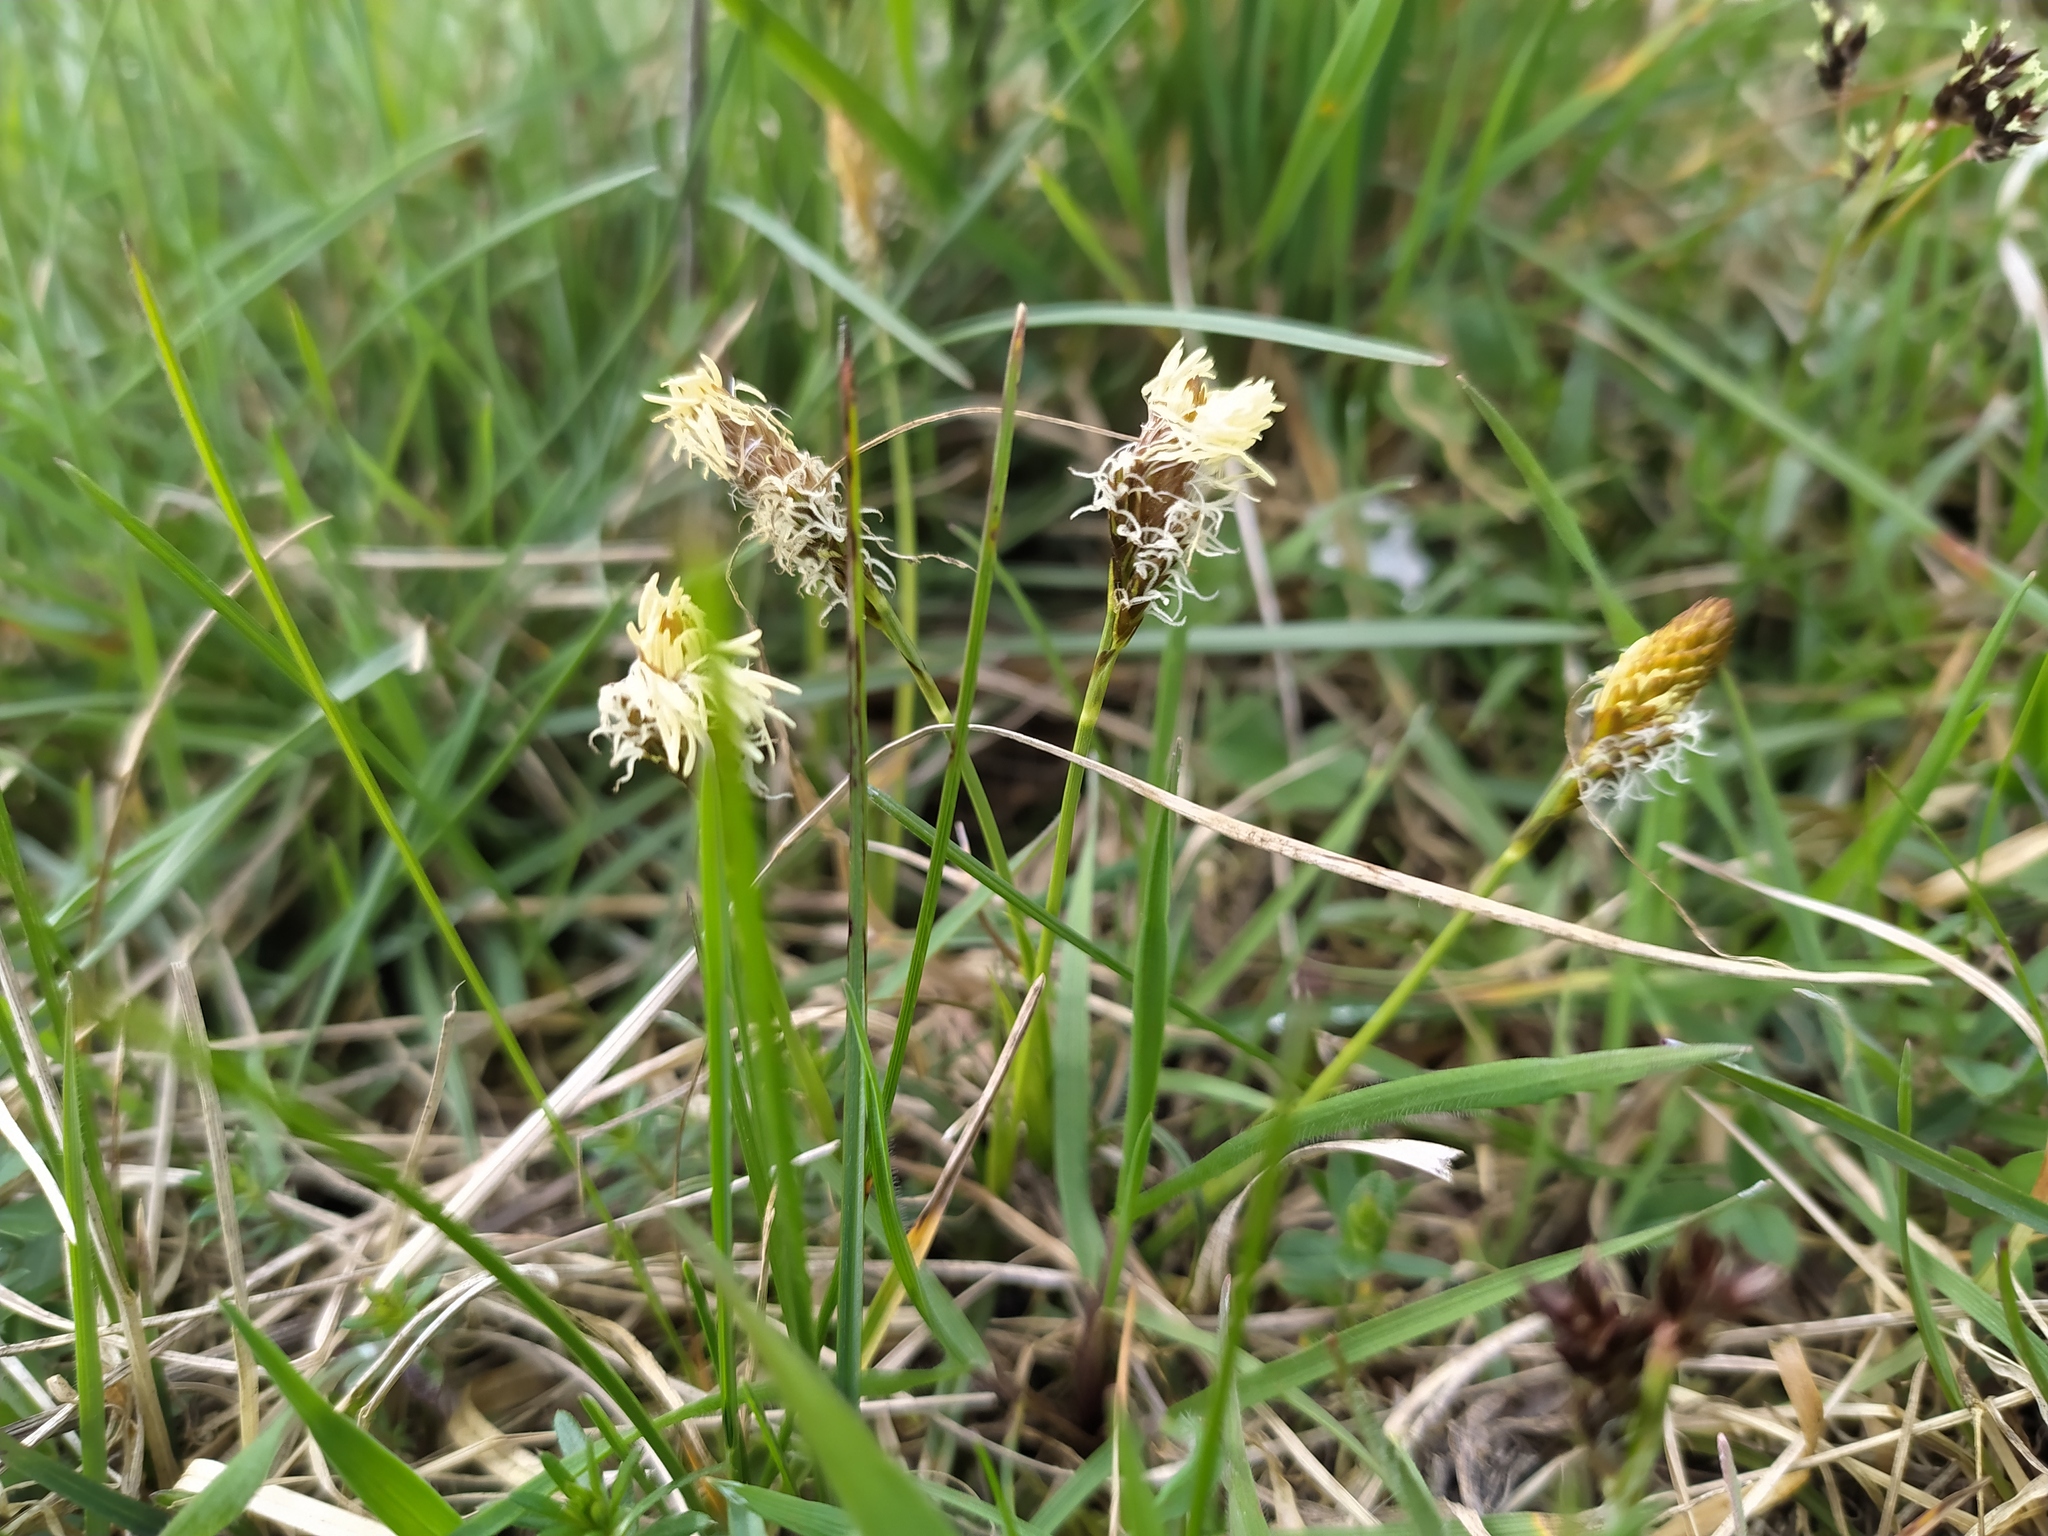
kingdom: Plantae
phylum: Tracheophyta
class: Liliopsida
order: Poales
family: Cyperaceae
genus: Carex
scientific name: Carex caryophyllea
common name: Spring sedge
